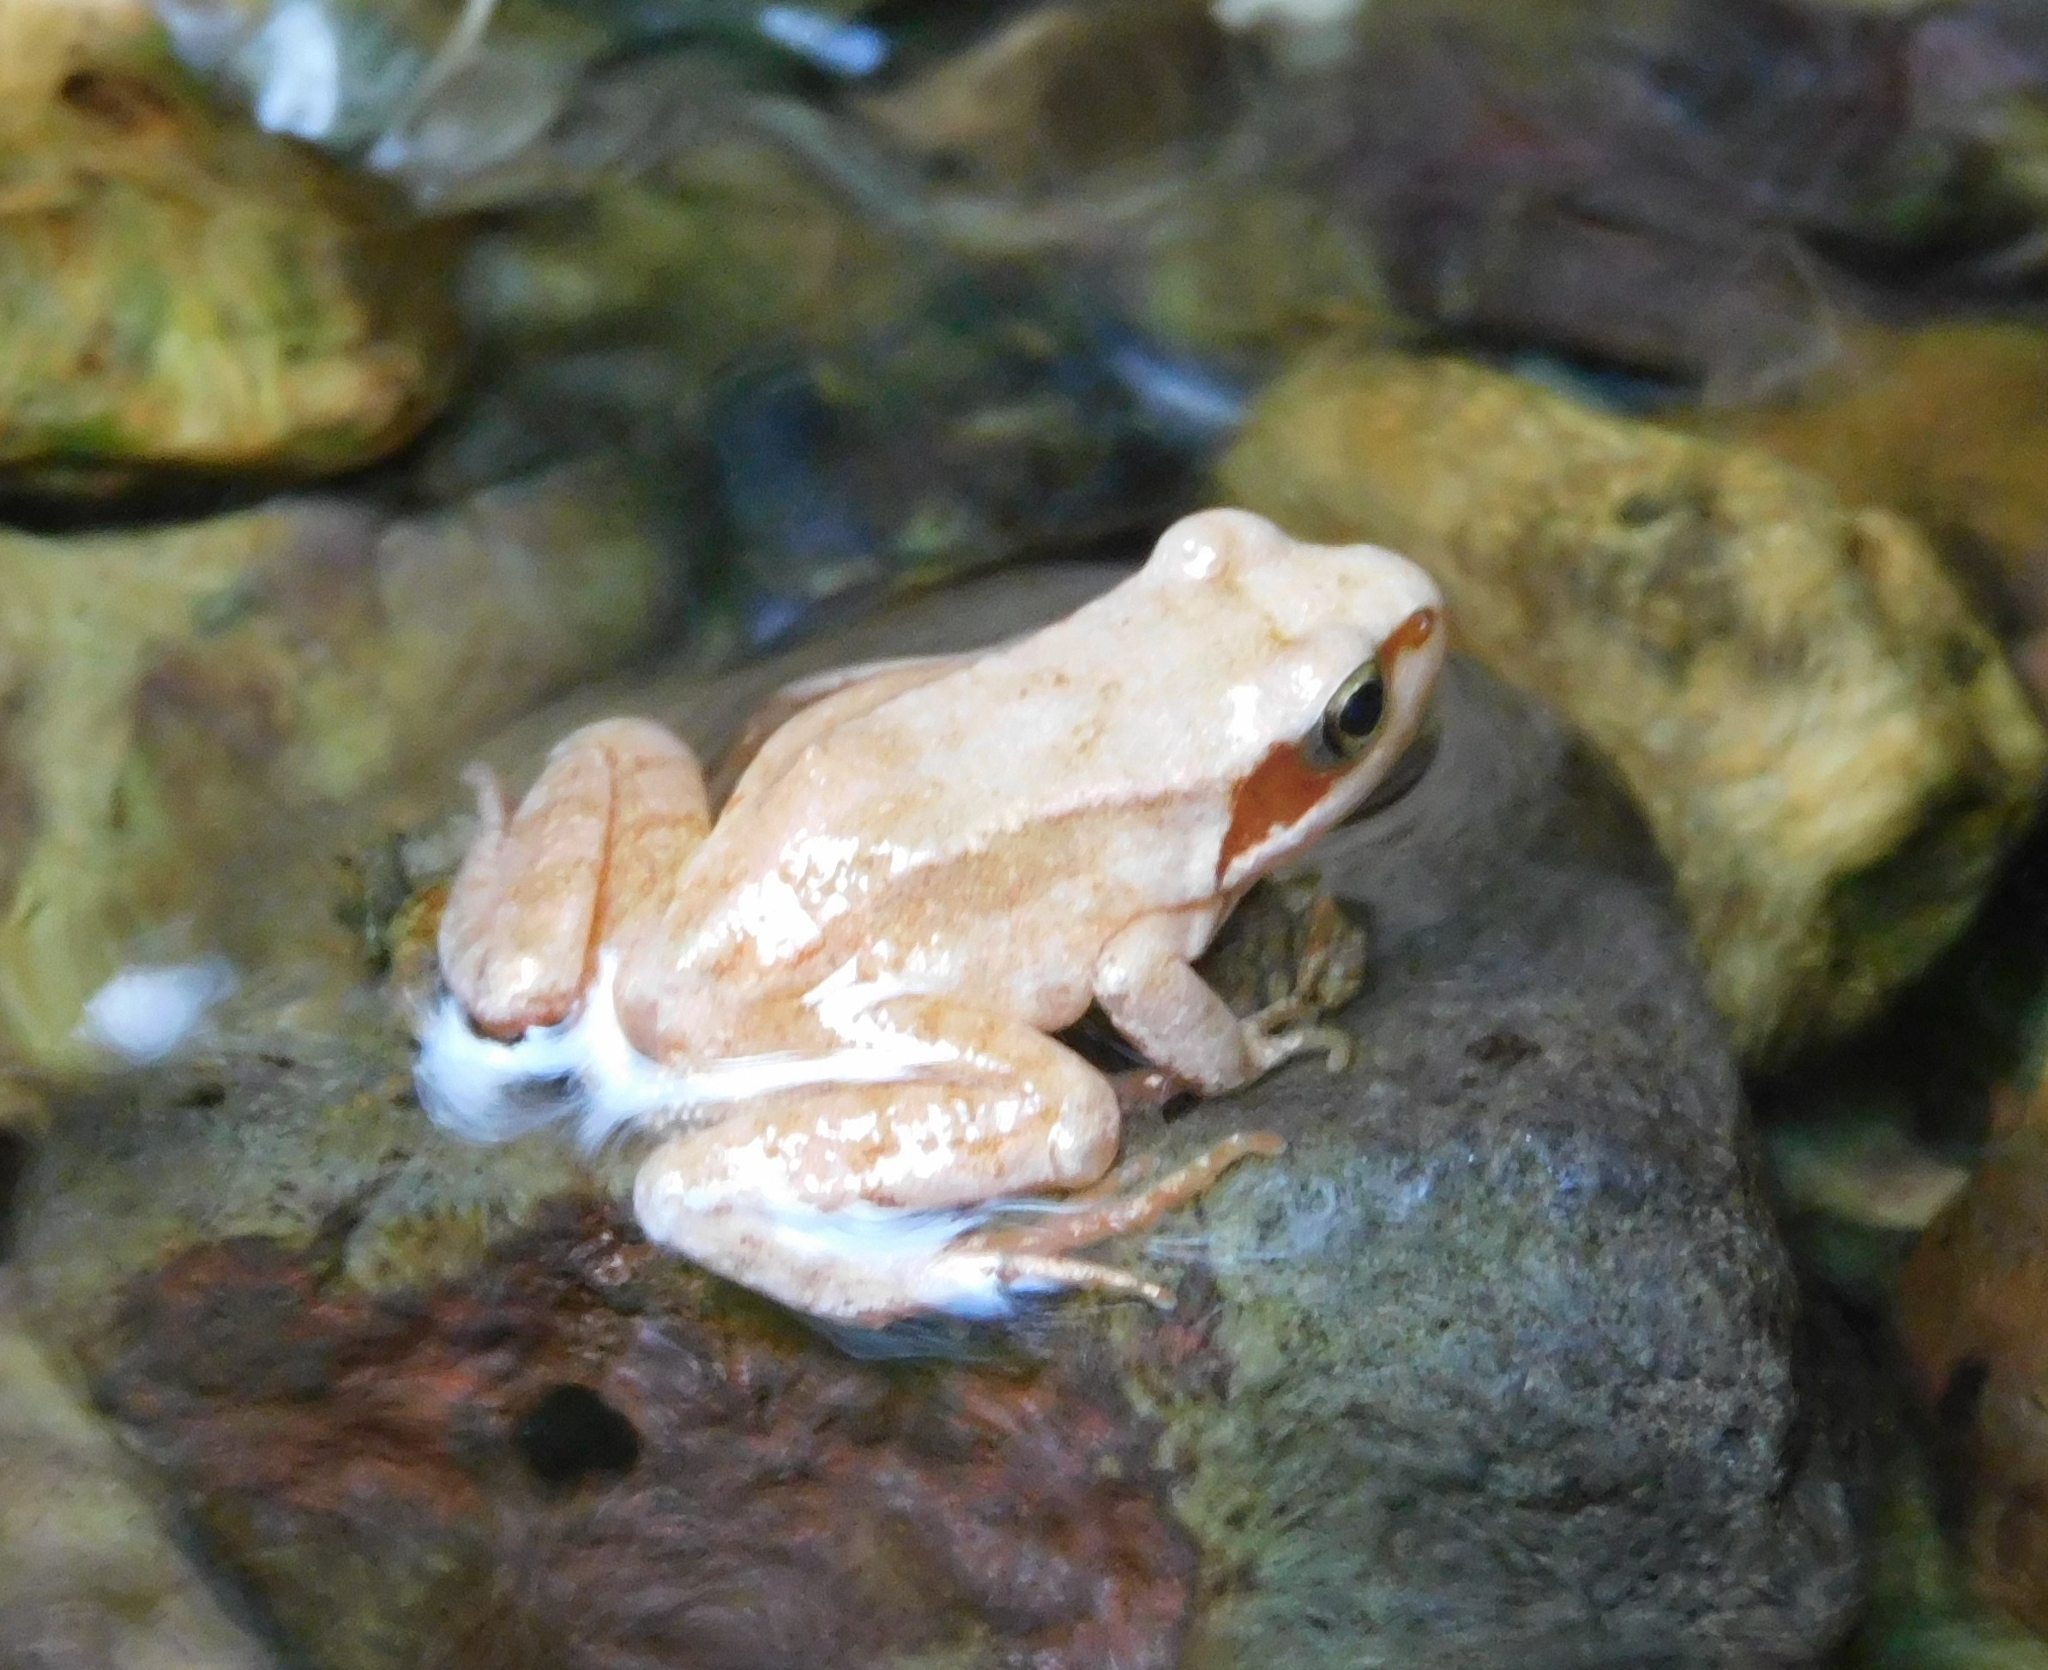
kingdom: Animalia
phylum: Chordata
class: Amphibia
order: Anura
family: Ranidae
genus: Rana
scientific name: Rana temporaria
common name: Common frog
